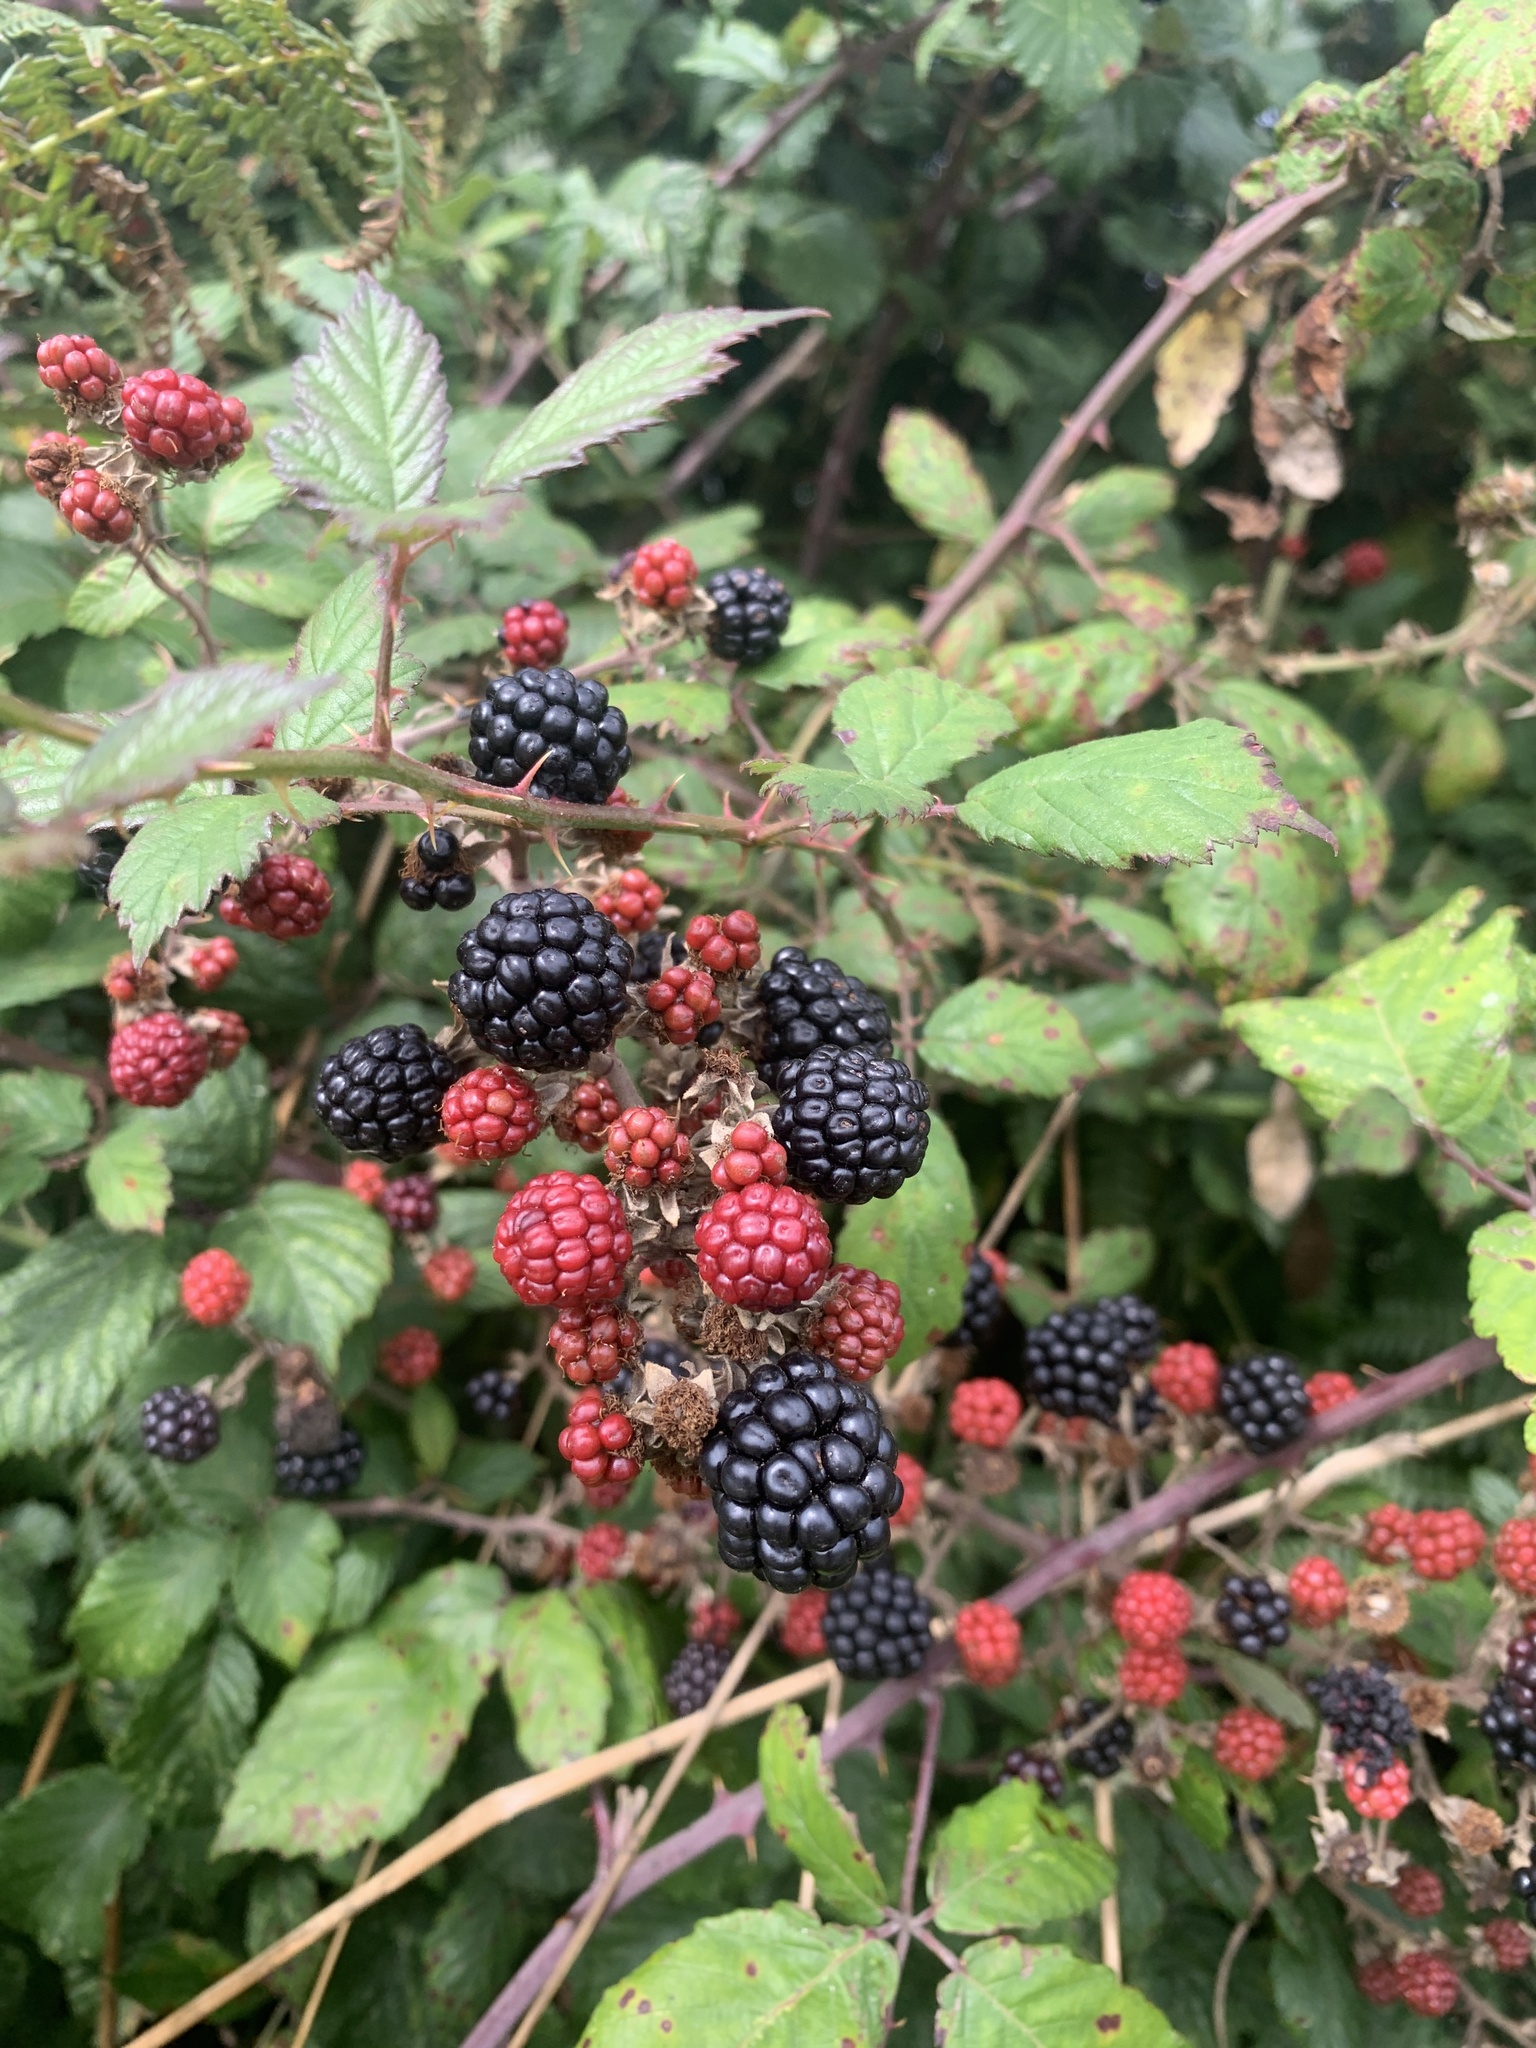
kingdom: Plantae
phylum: Tracheophyta
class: Magnoliopsida
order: Rosales
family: Rosaceae
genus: Rubus
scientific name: Rubus fruticosus
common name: Blackberry, bramble
